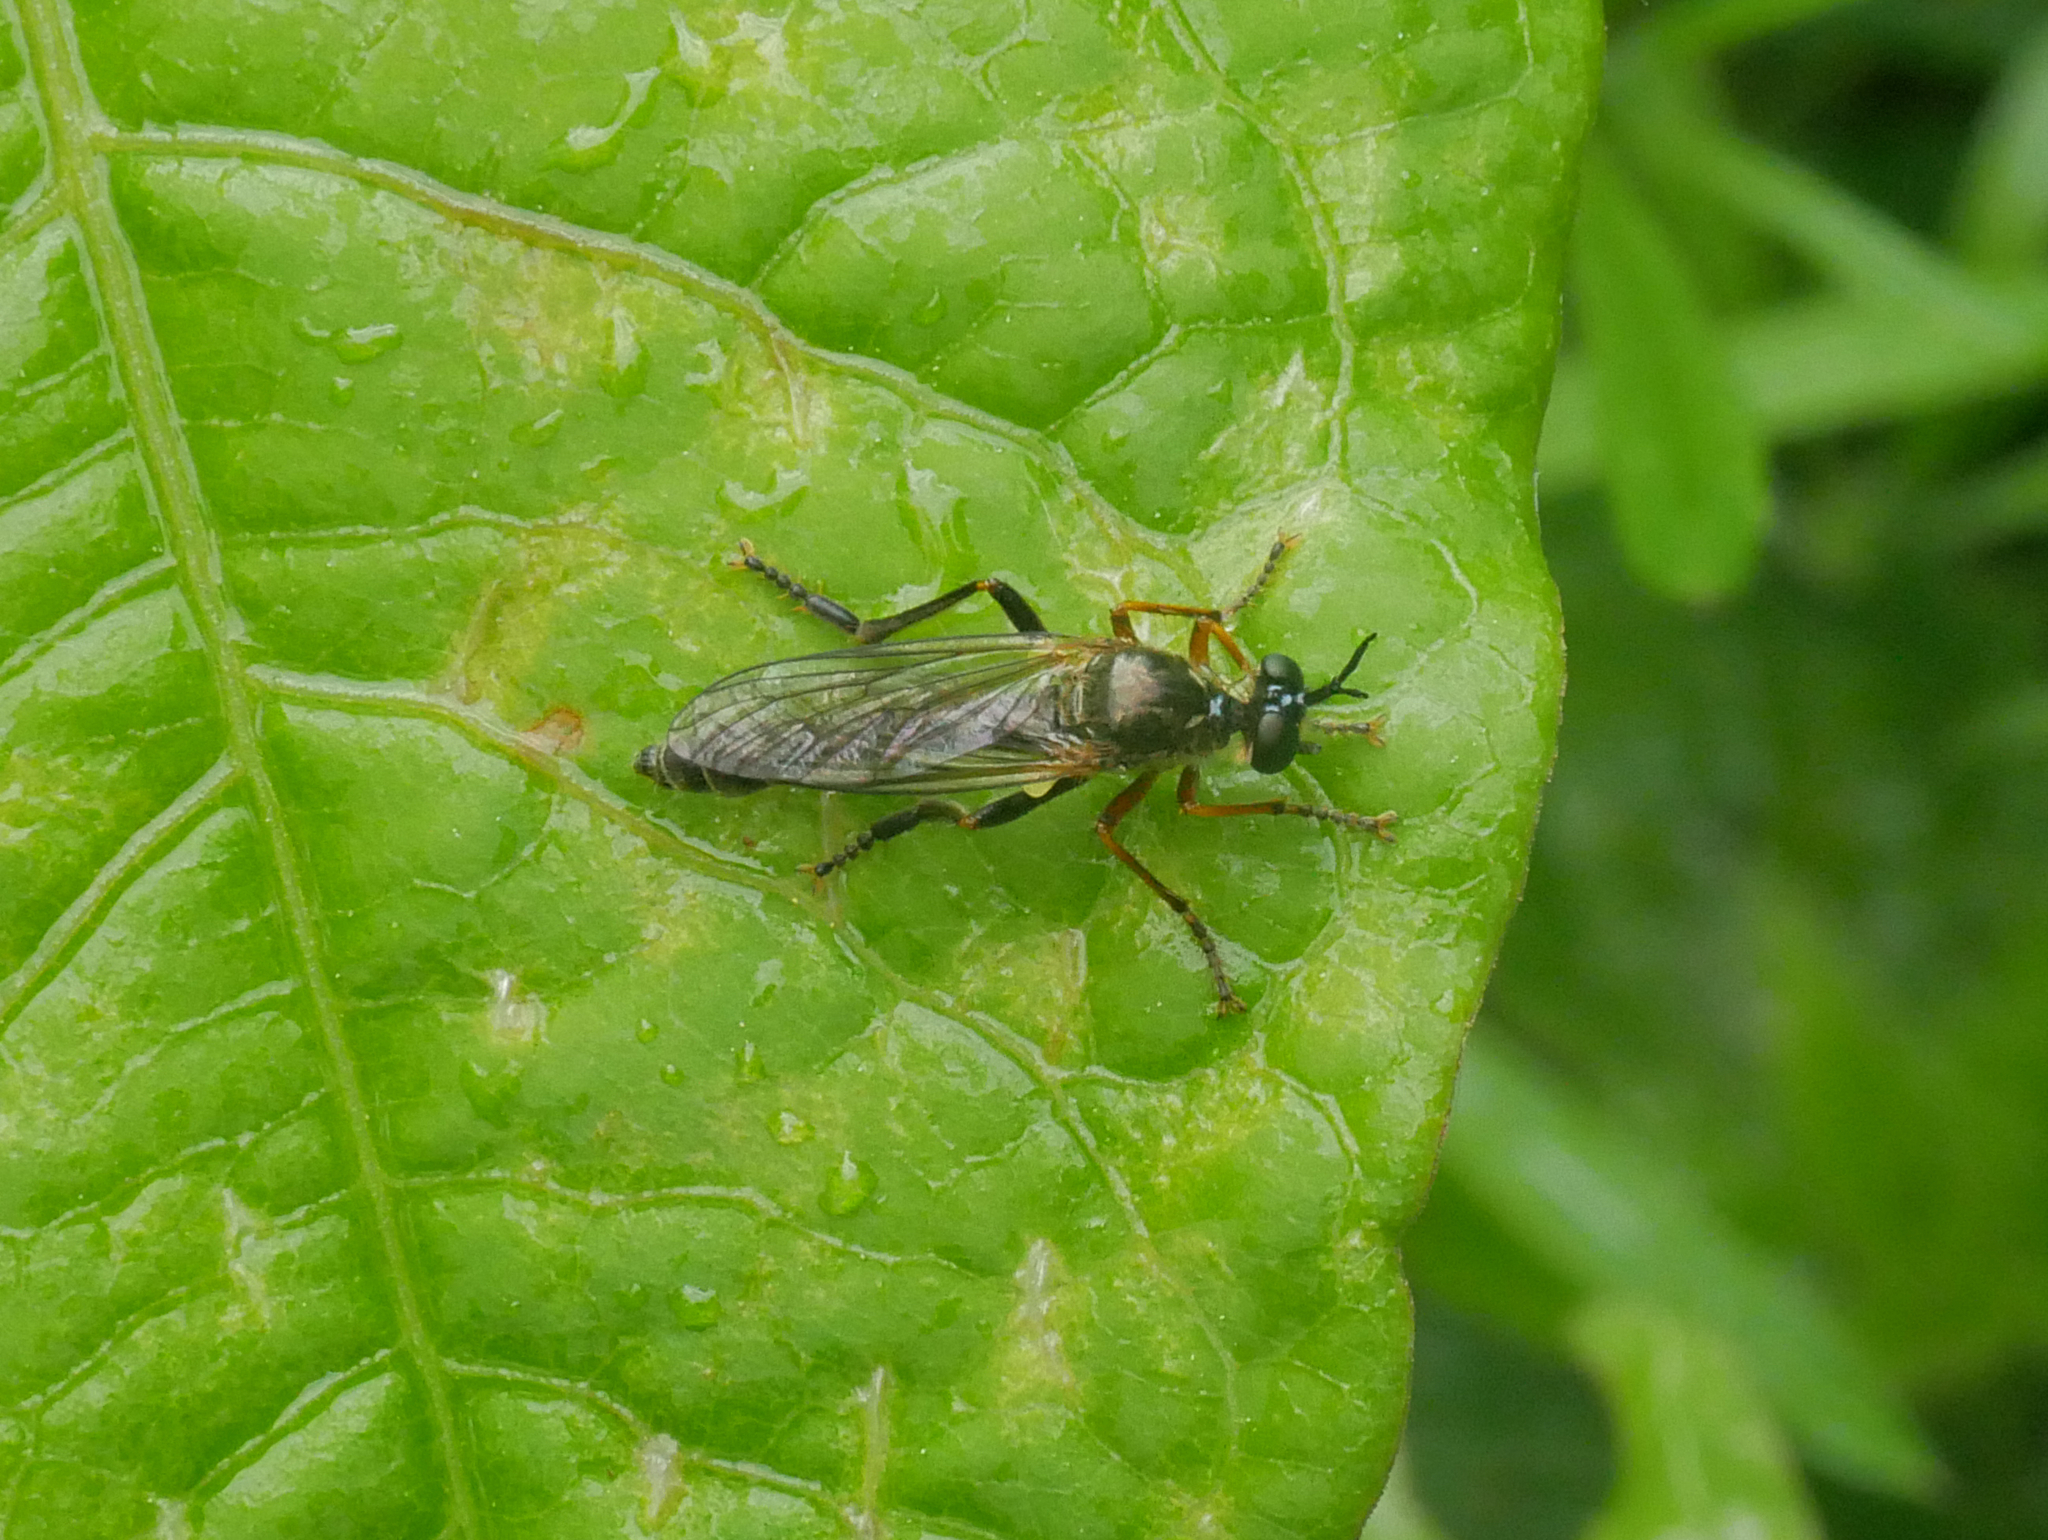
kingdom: Animalia
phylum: Arthropoda
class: Insecta
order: Diptera
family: Asilidae
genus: Dioctria
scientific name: Dioctria rufipes
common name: Common red-legged robberfly
